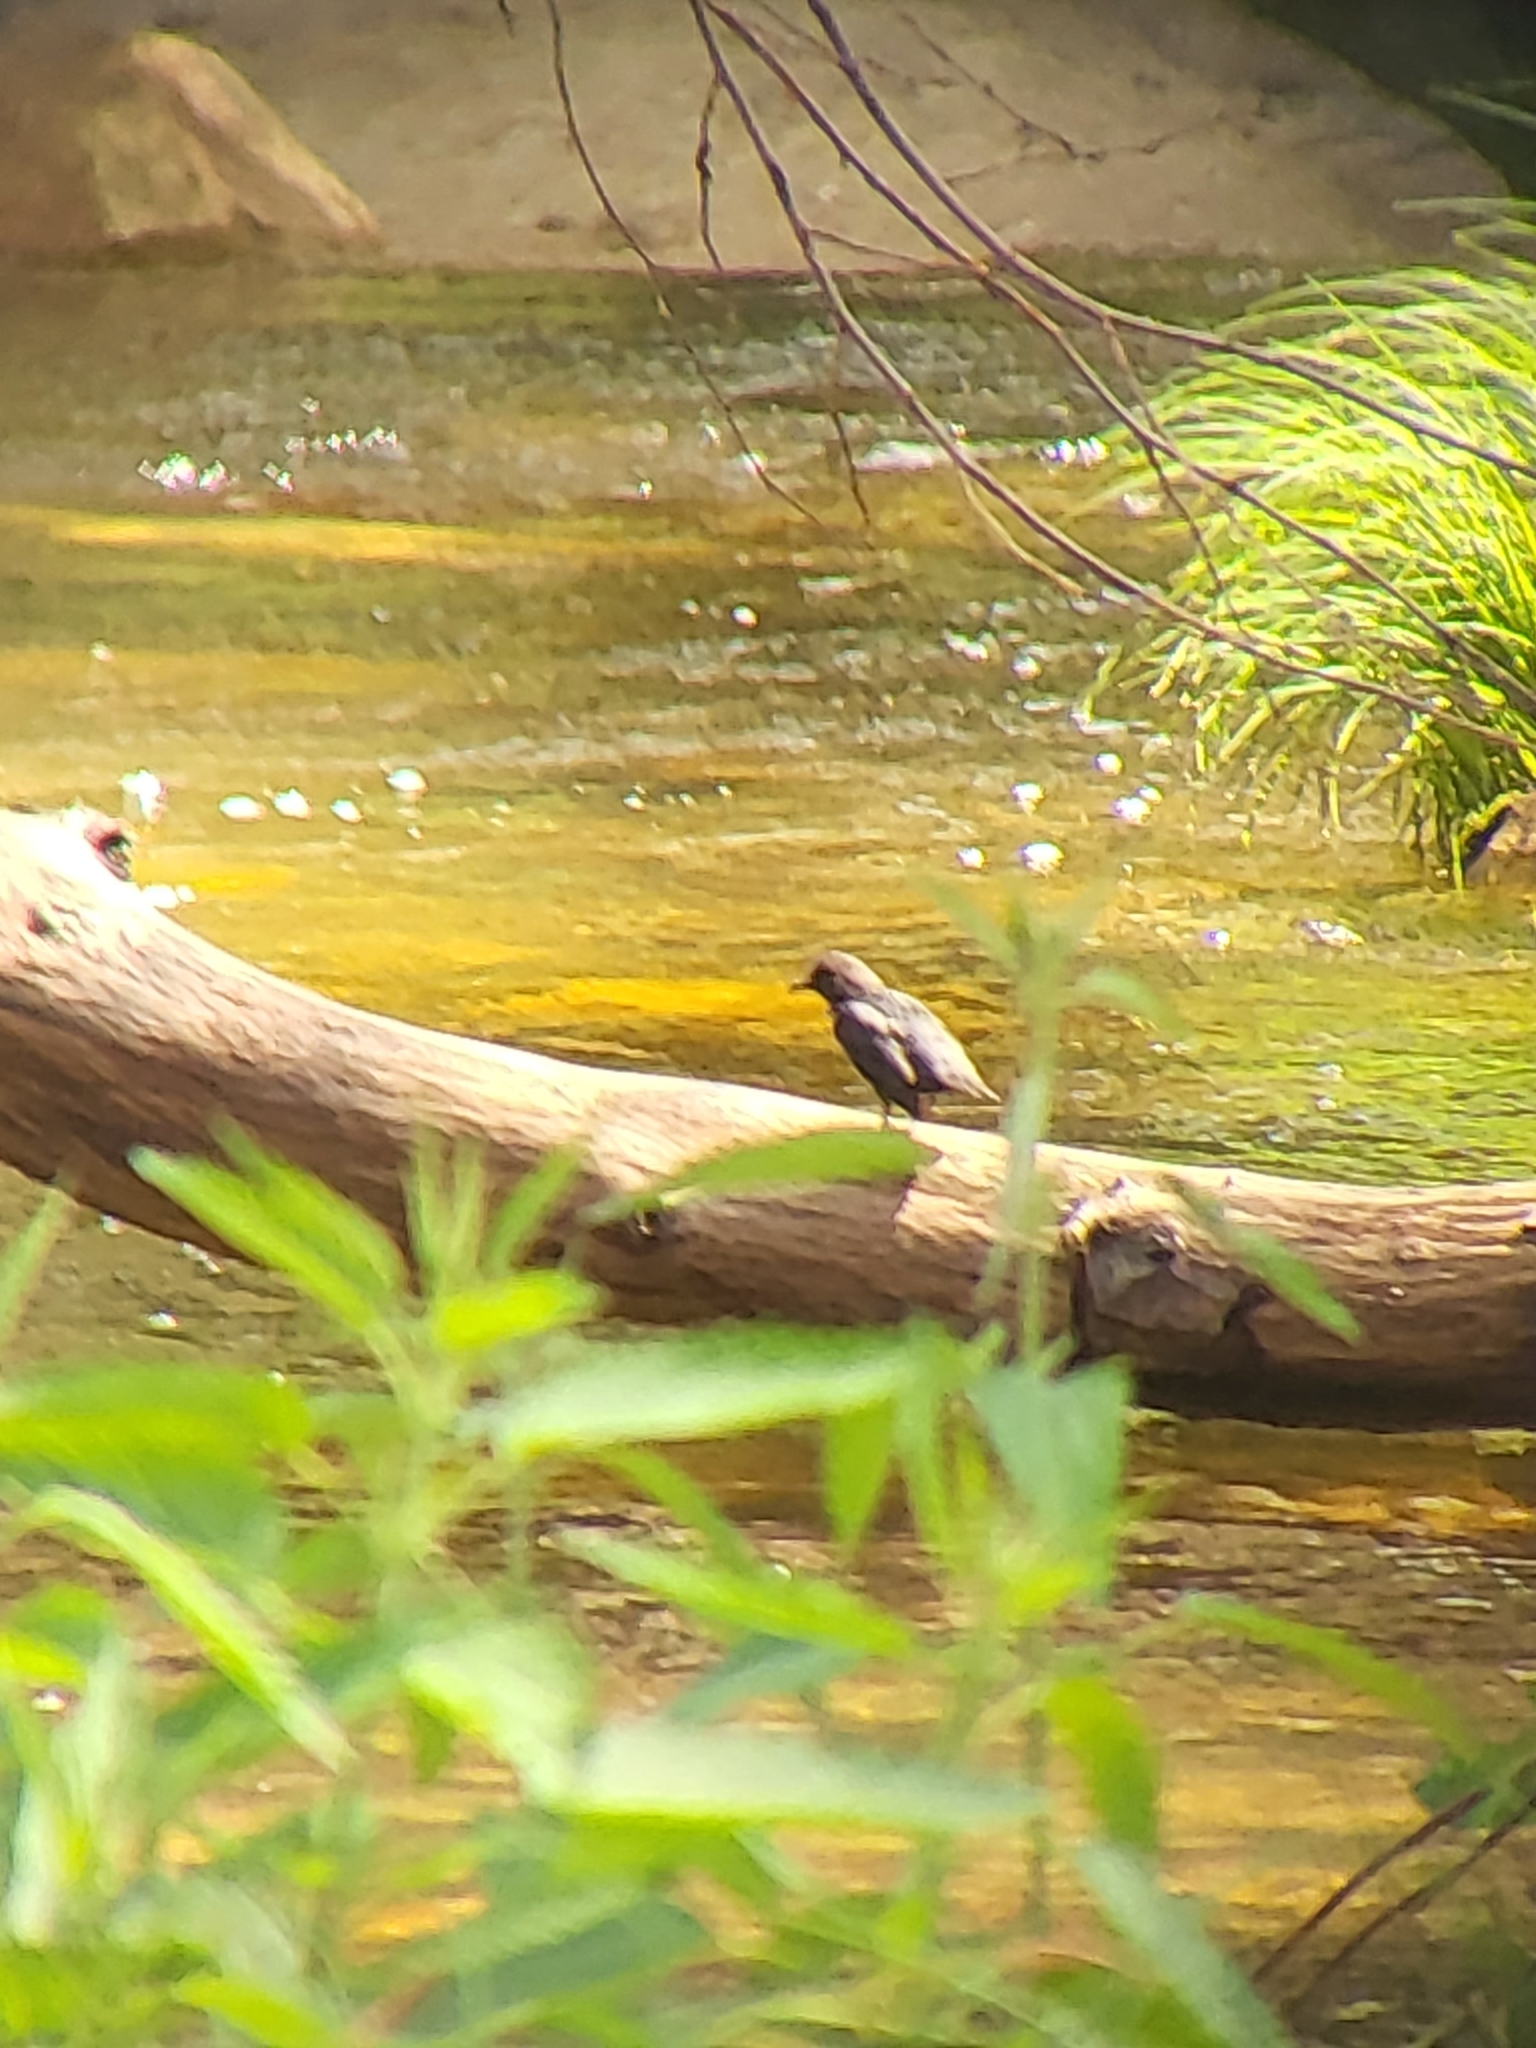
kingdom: Animalia
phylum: Chordata
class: Aves
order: Passeriformes
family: Cinclidae
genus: Cinclus
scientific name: Cinclus mexicanus
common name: American dipper
